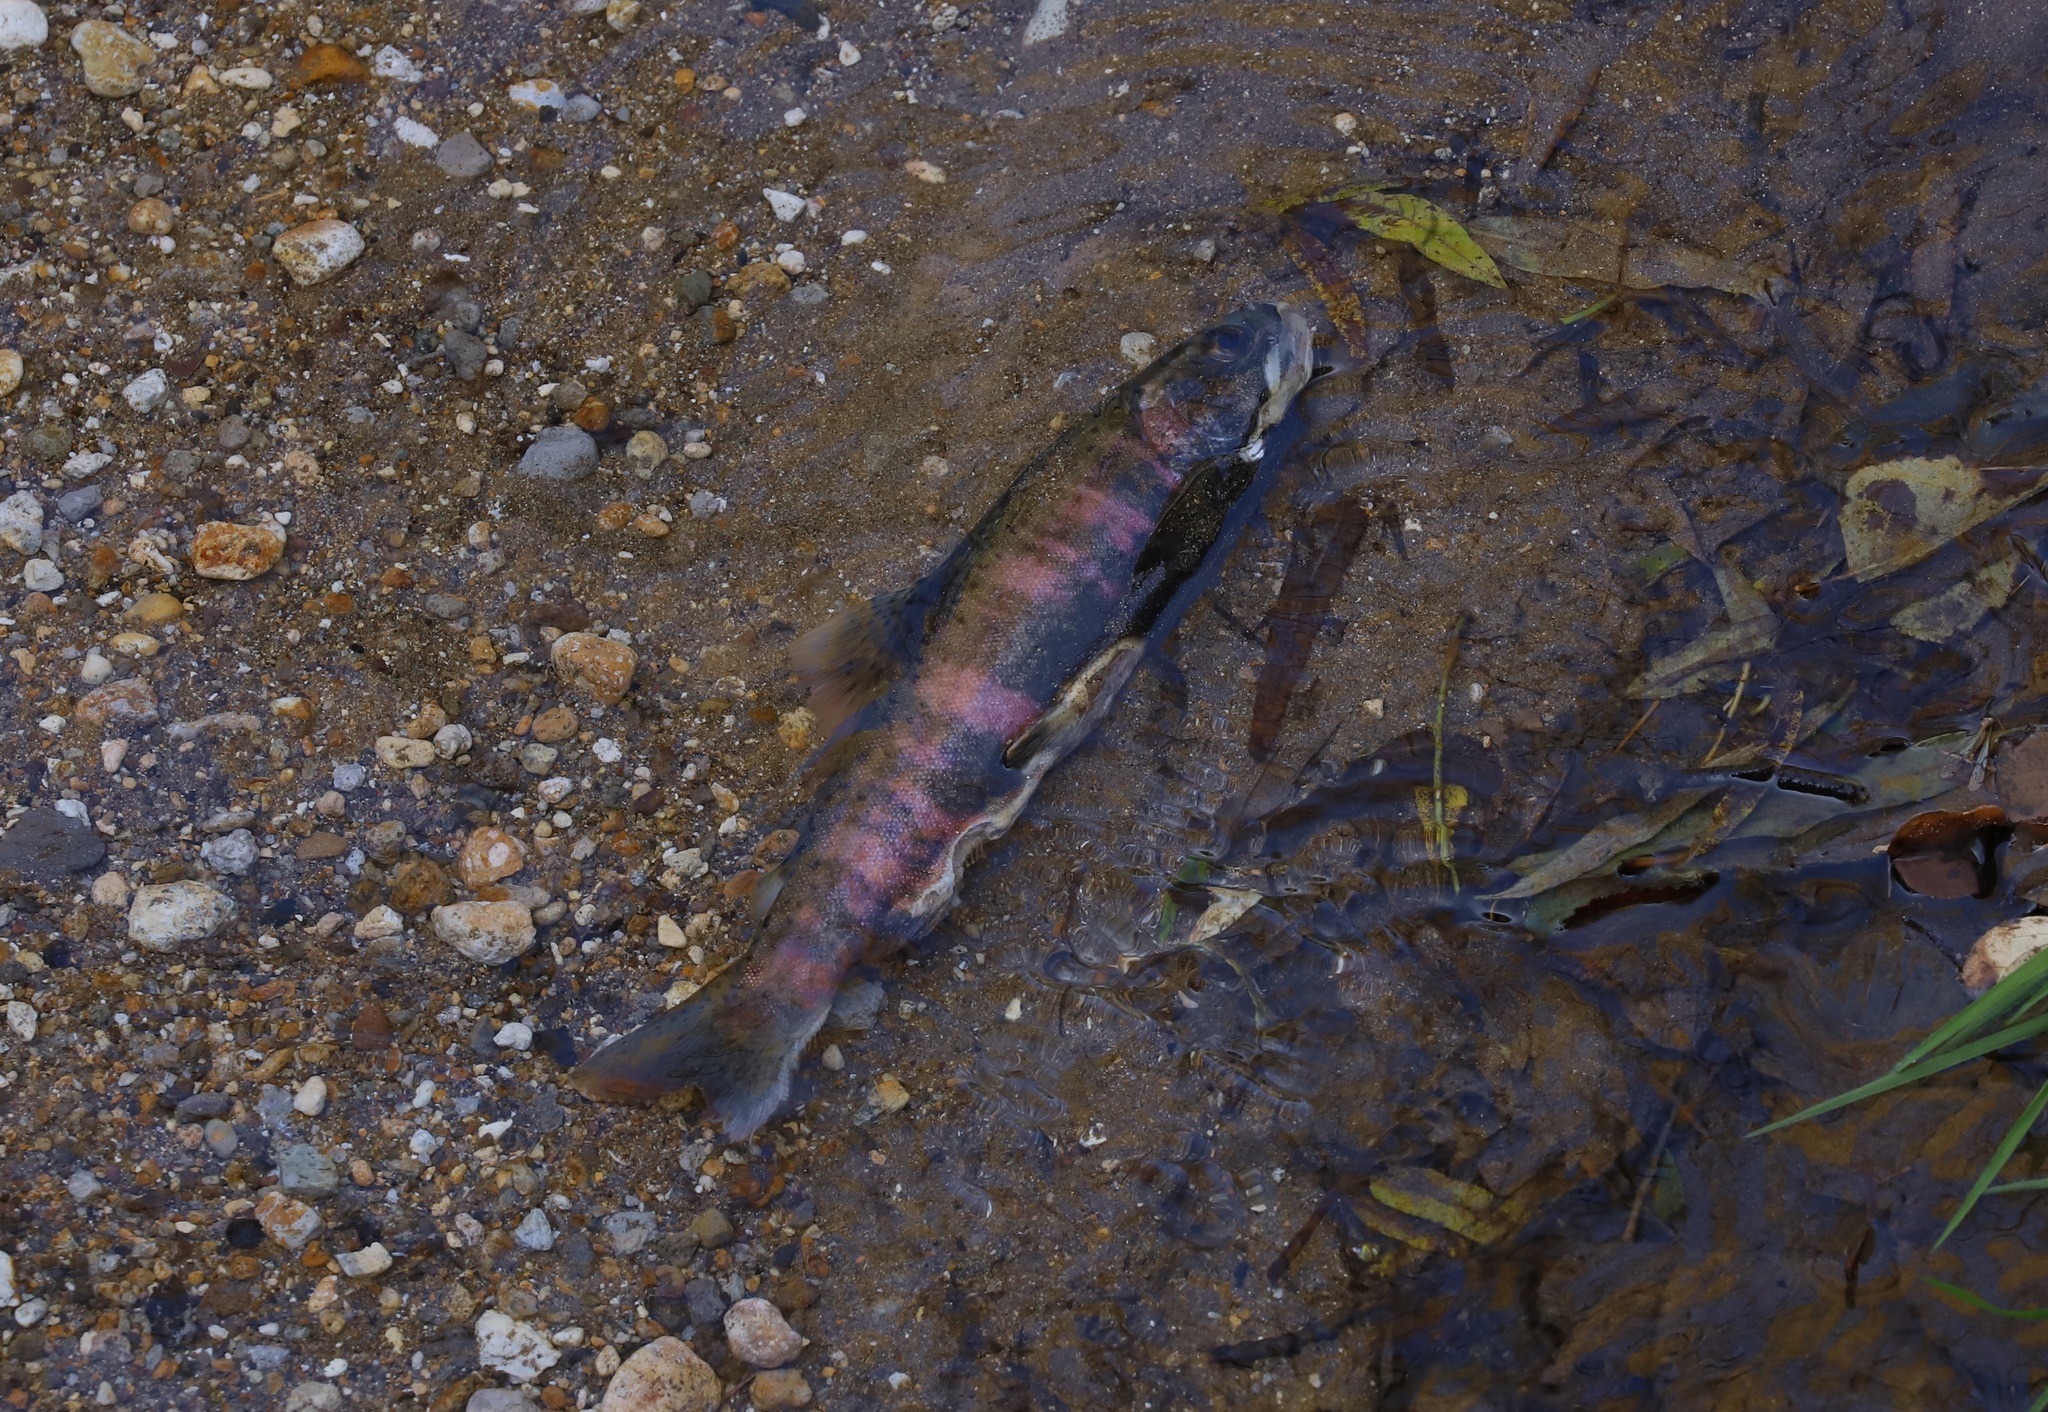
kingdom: Animalia
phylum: Chordata
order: Salmoniformes
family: Salmonidae
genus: Oncorhynchus
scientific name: Oncorhynchus masou
